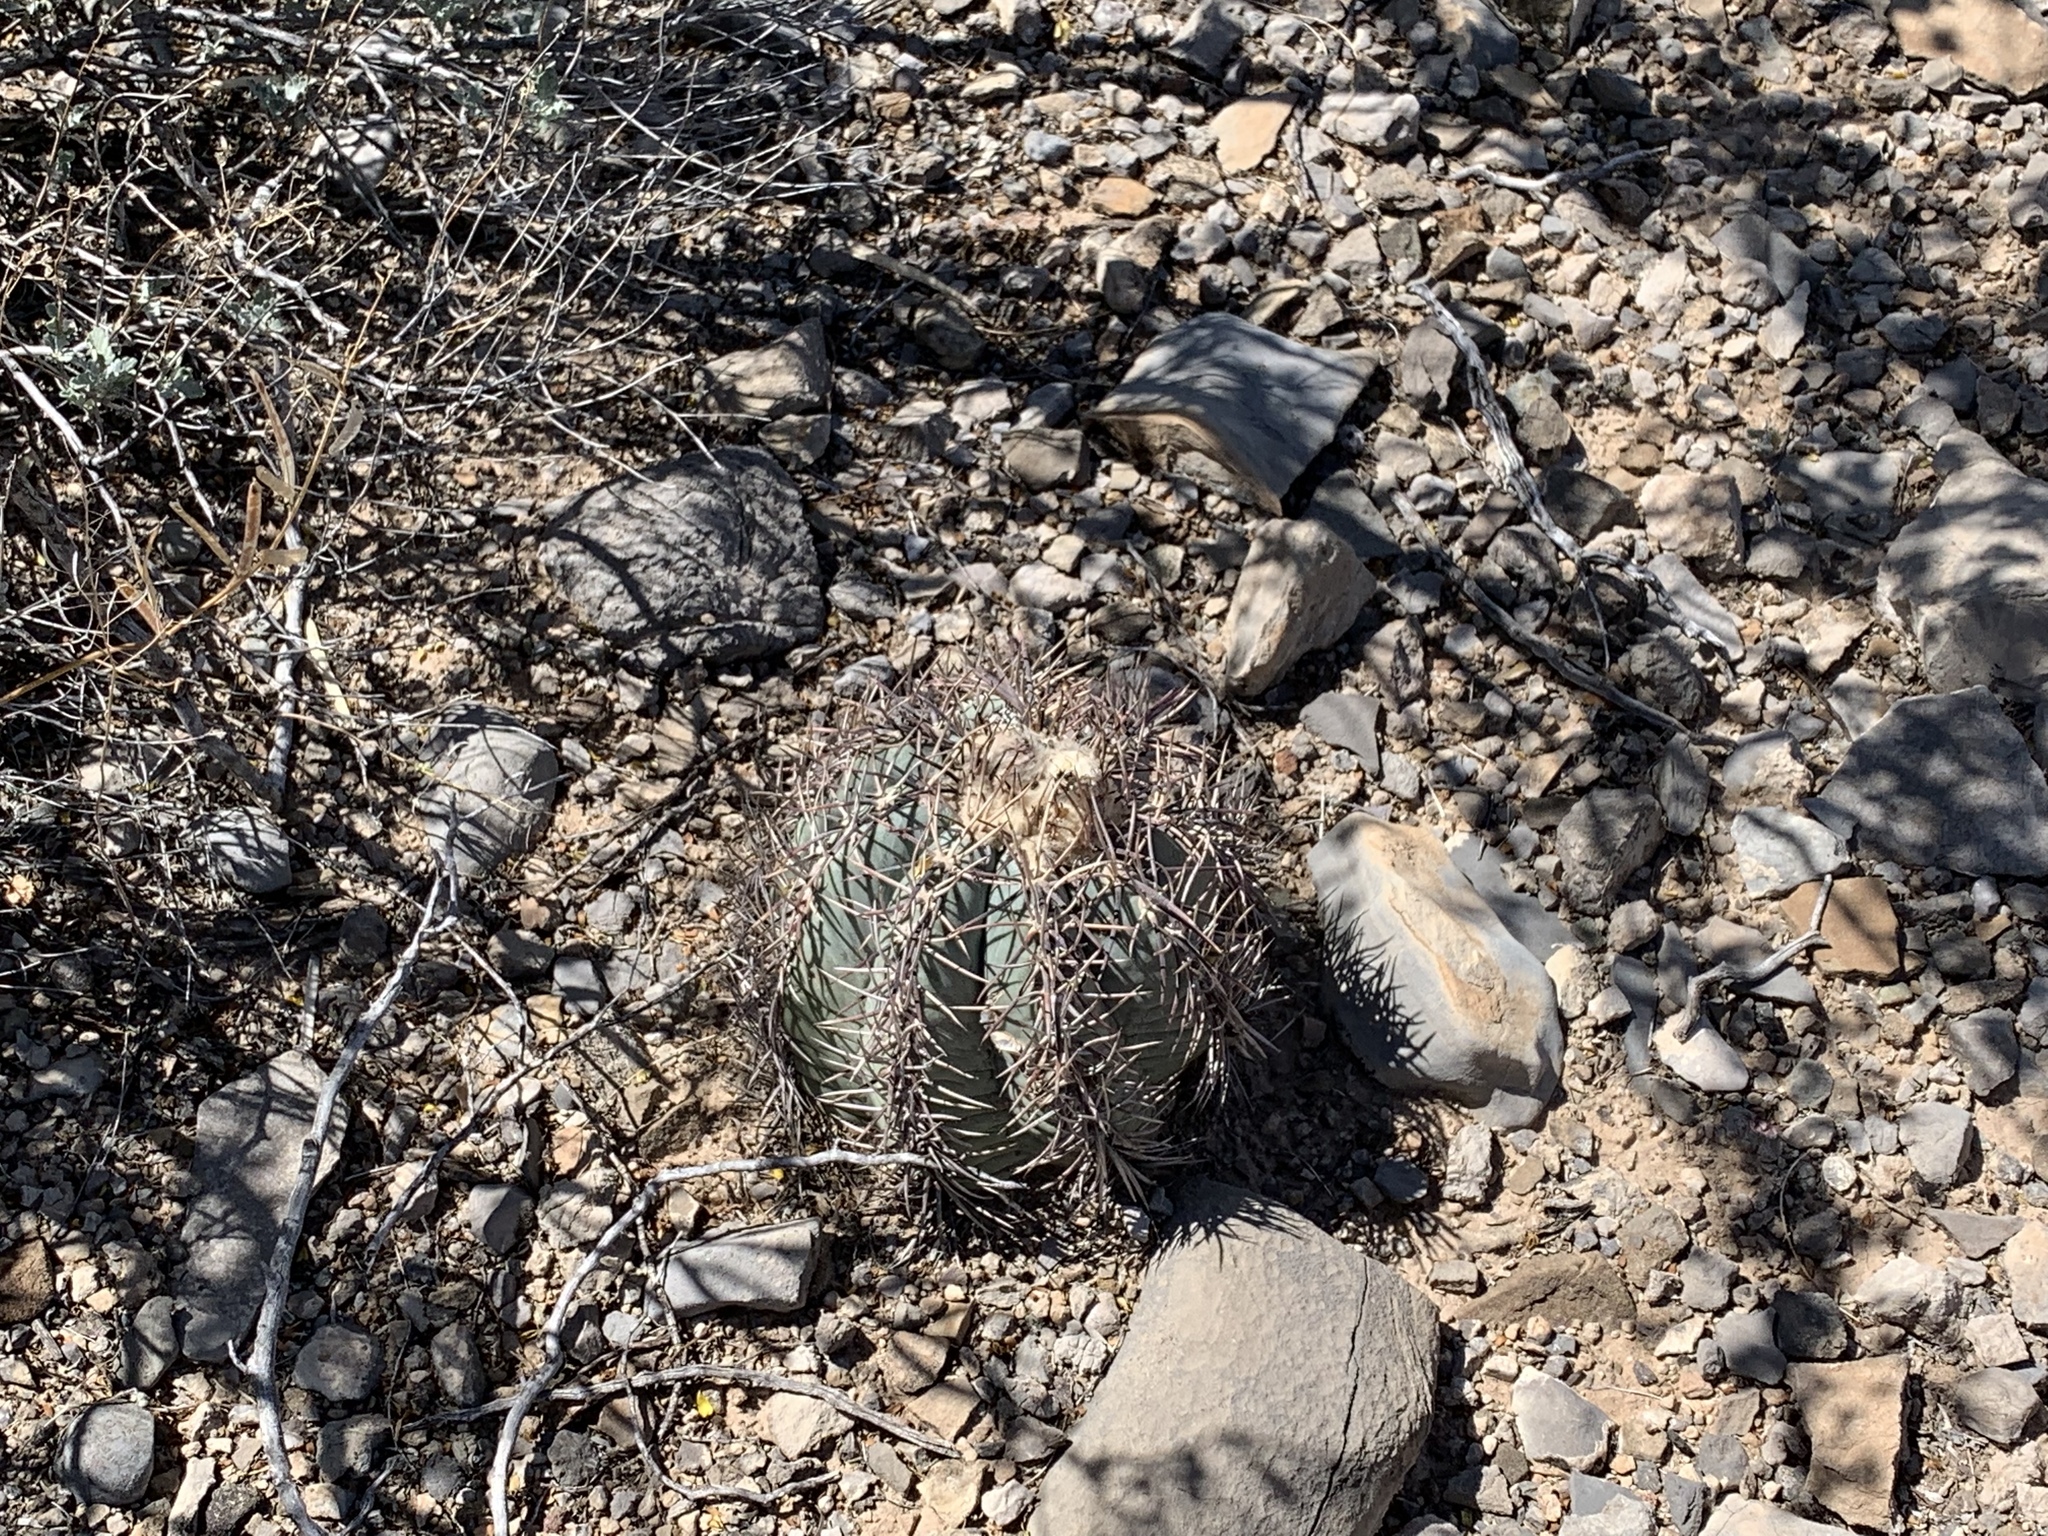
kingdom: Plantae
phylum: Tracheophyta
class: Magnoliopsida
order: Caryophyllales
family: Cactaceae
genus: Echinocactus
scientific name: Echinocactus horizonthalonius
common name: Devilshead
